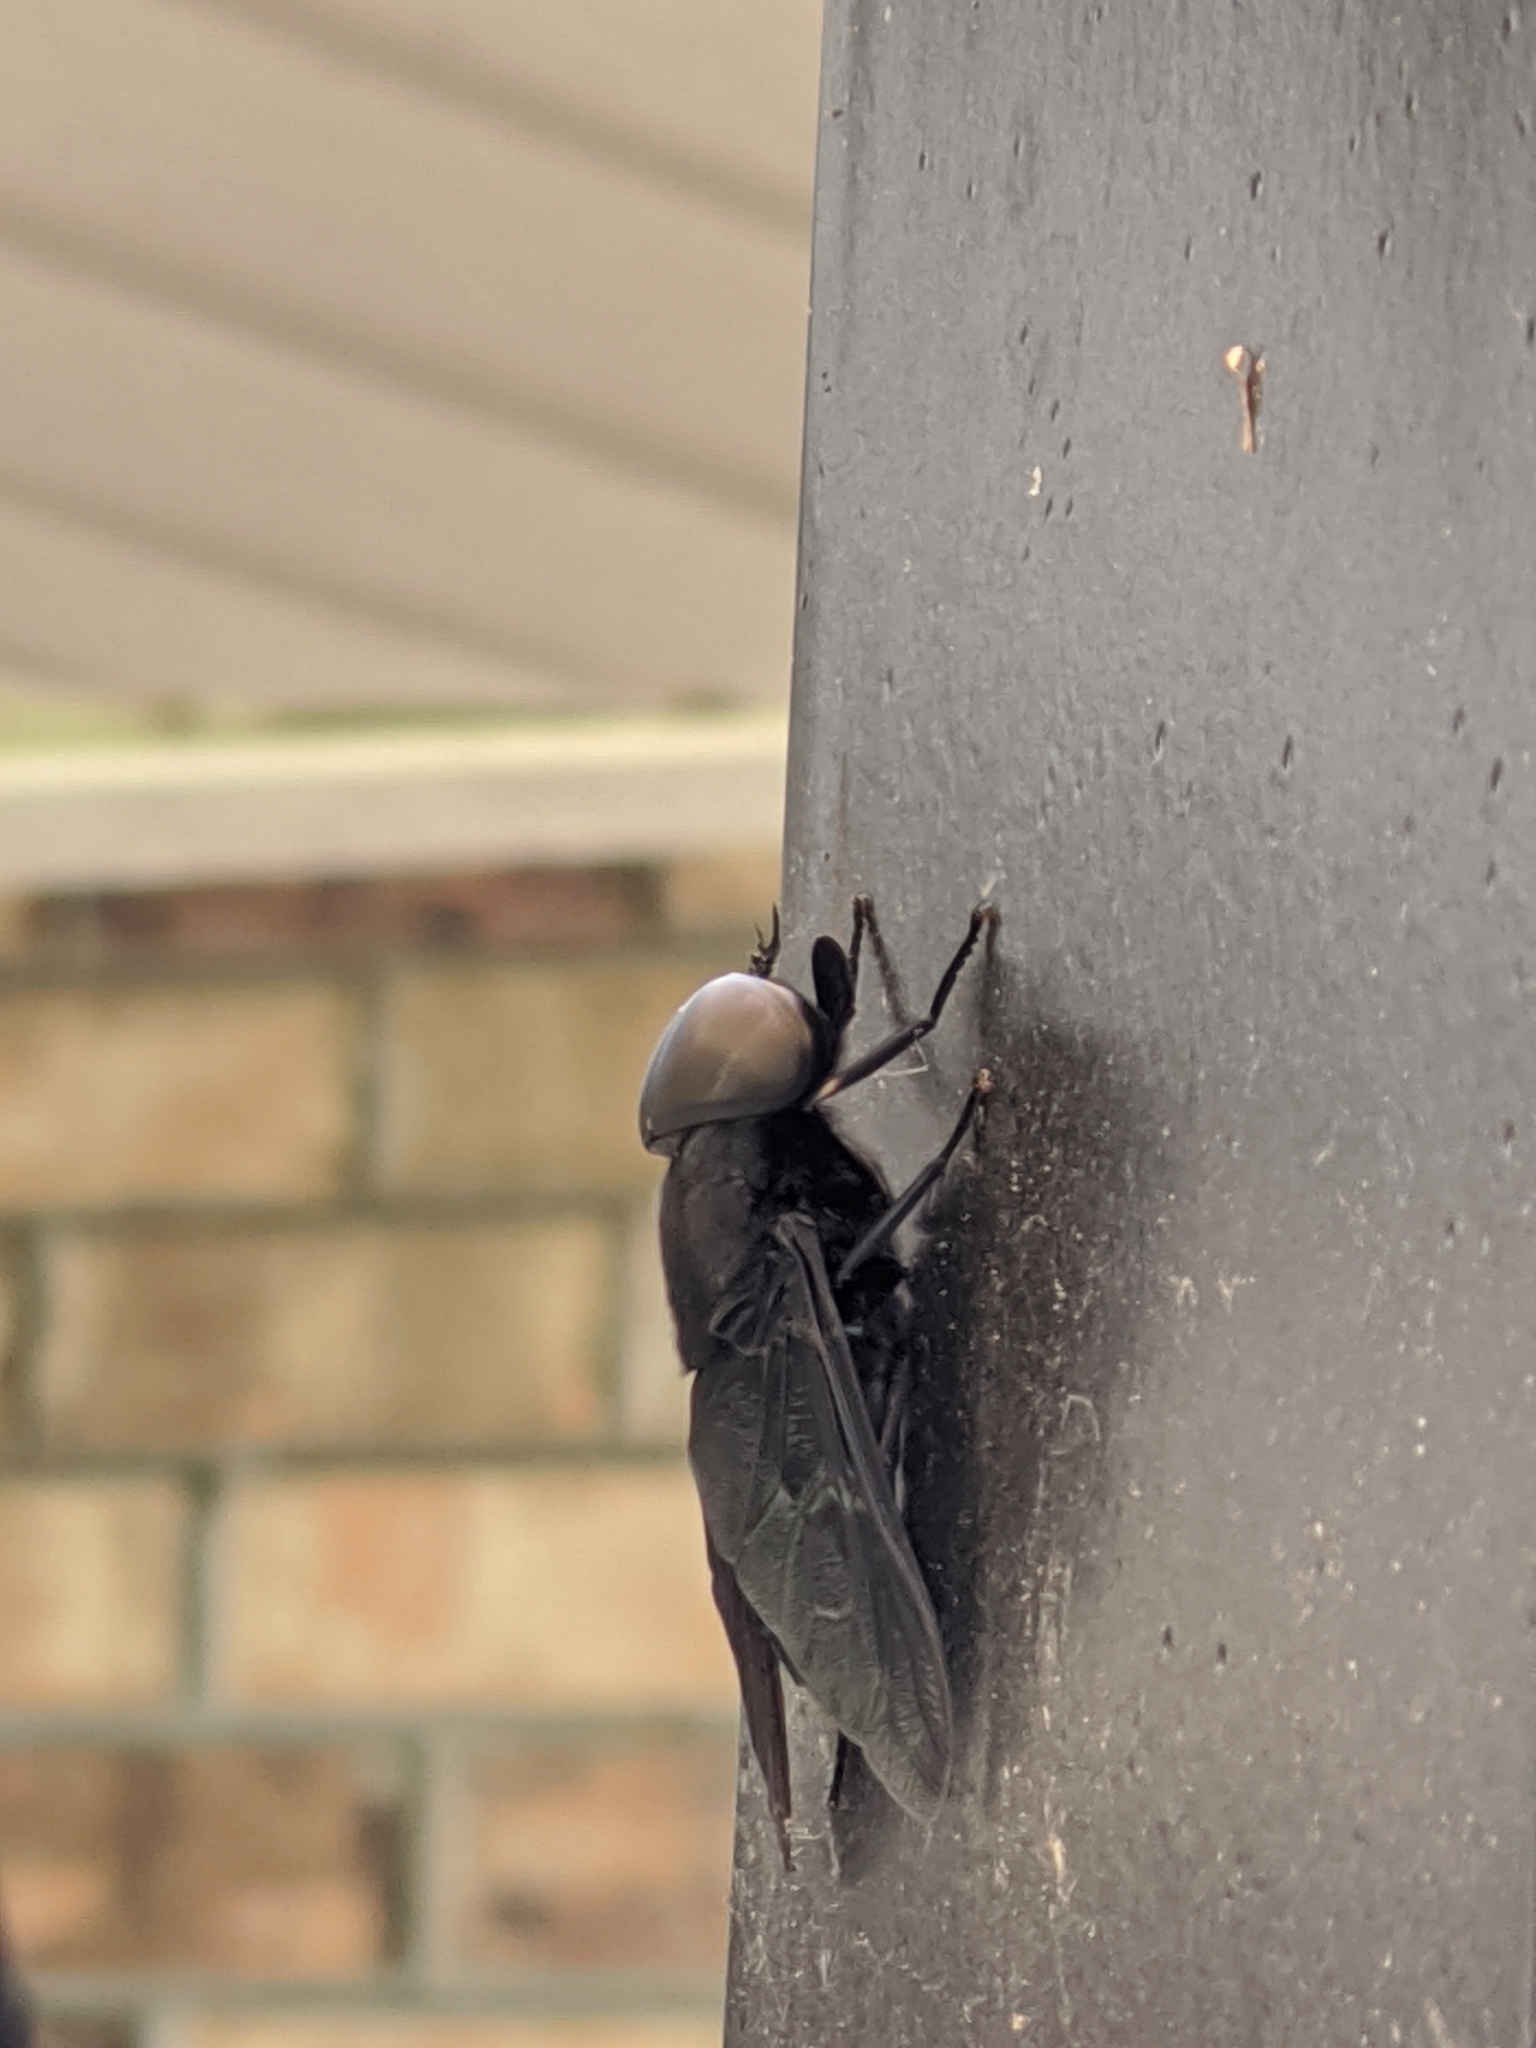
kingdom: Animalia
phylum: Arthropoda
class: Insecta
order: Diptera
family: Tabanidae
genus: Tabanus
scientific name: Tabanus atratus
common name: Black horse fly
